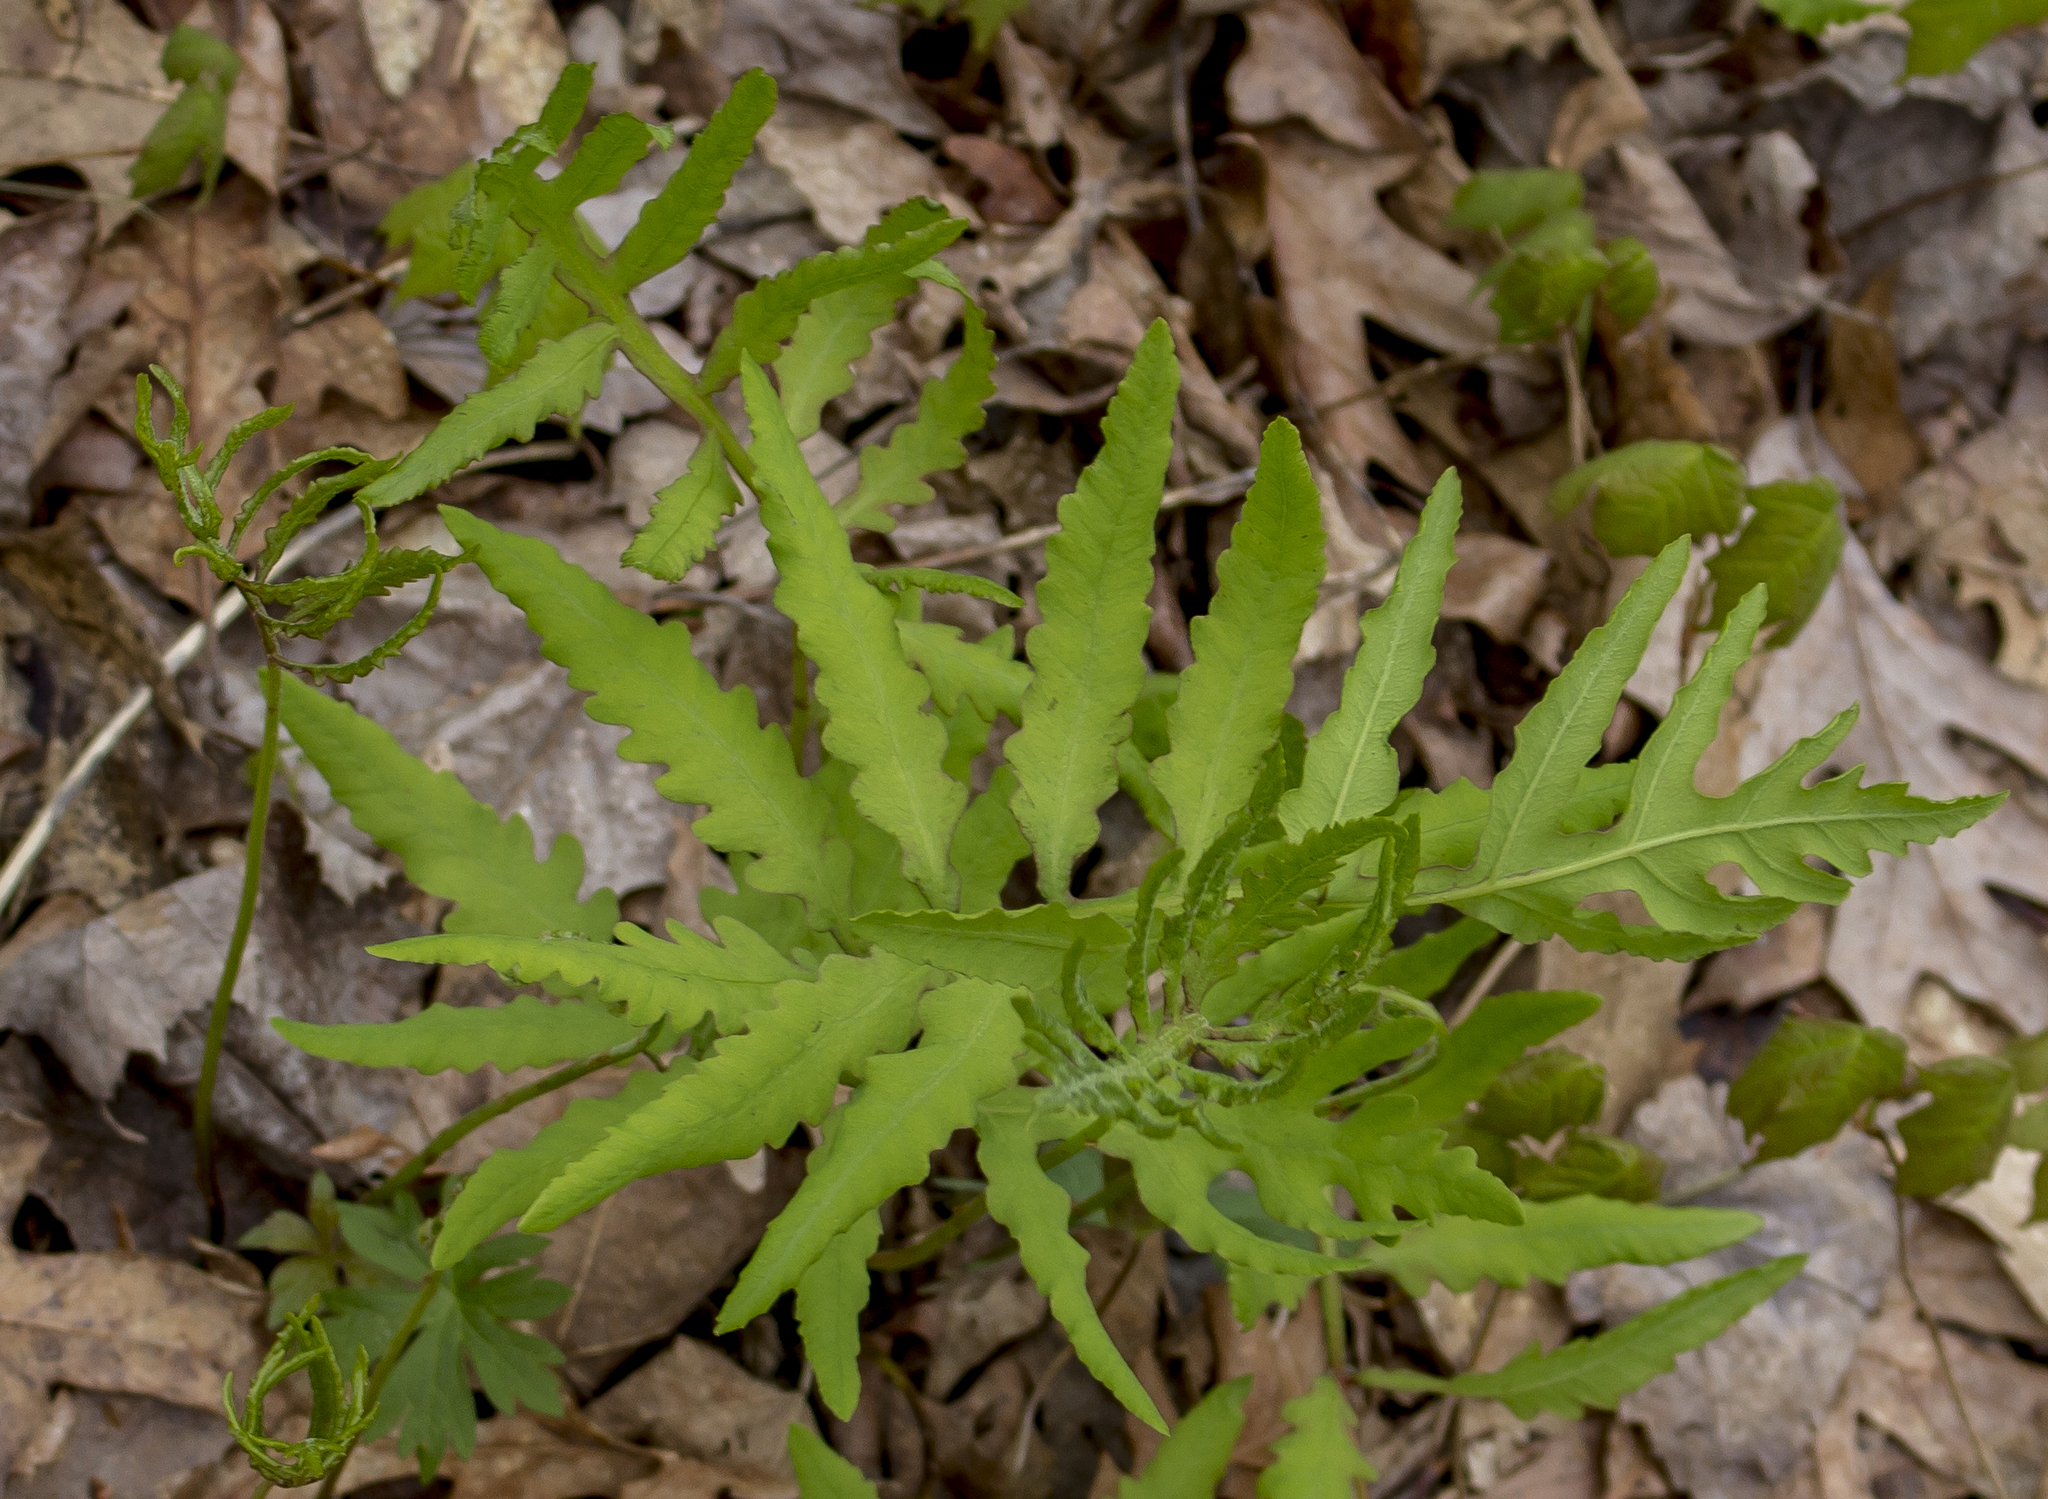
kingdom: Plantae
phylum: Tracheophyta
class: Polypodiopsida
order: Polypodiales
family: Onocleaceae
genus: Onoclea
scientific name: Onoclea sensibilis
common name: Sensitive fern
